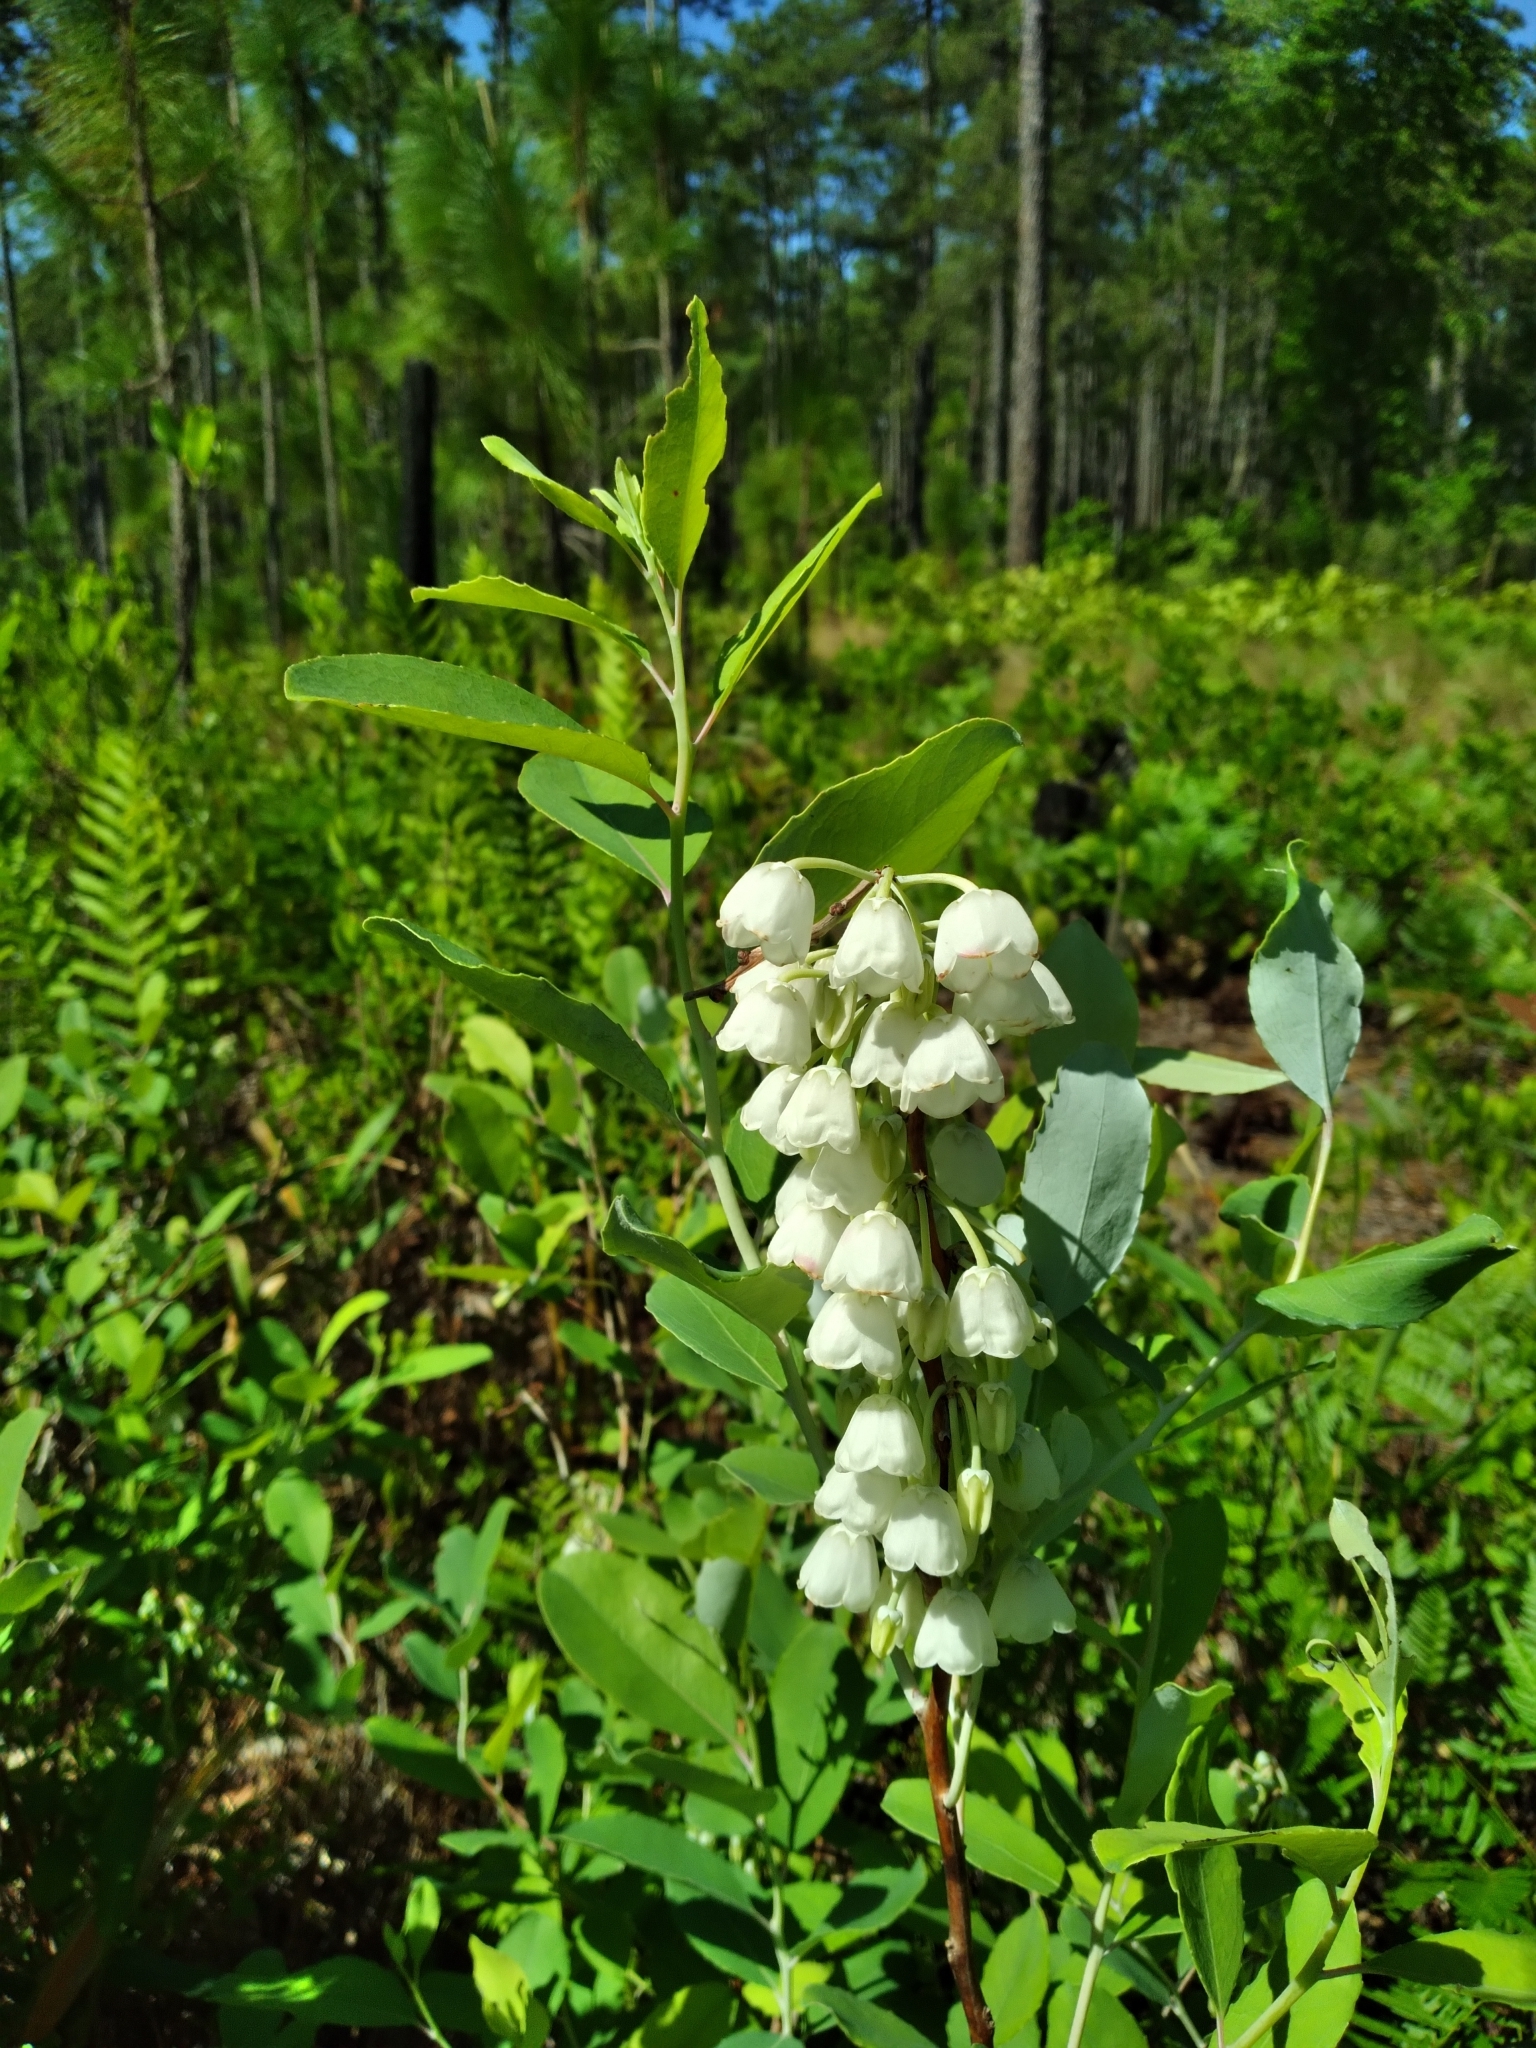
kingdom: Plantae
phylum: Tracheophyta
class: Magnoliopsida
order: Ericales
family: Ericaceae
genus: Zenobia
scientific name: Zenobia pulverulenta
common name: Zenobia
